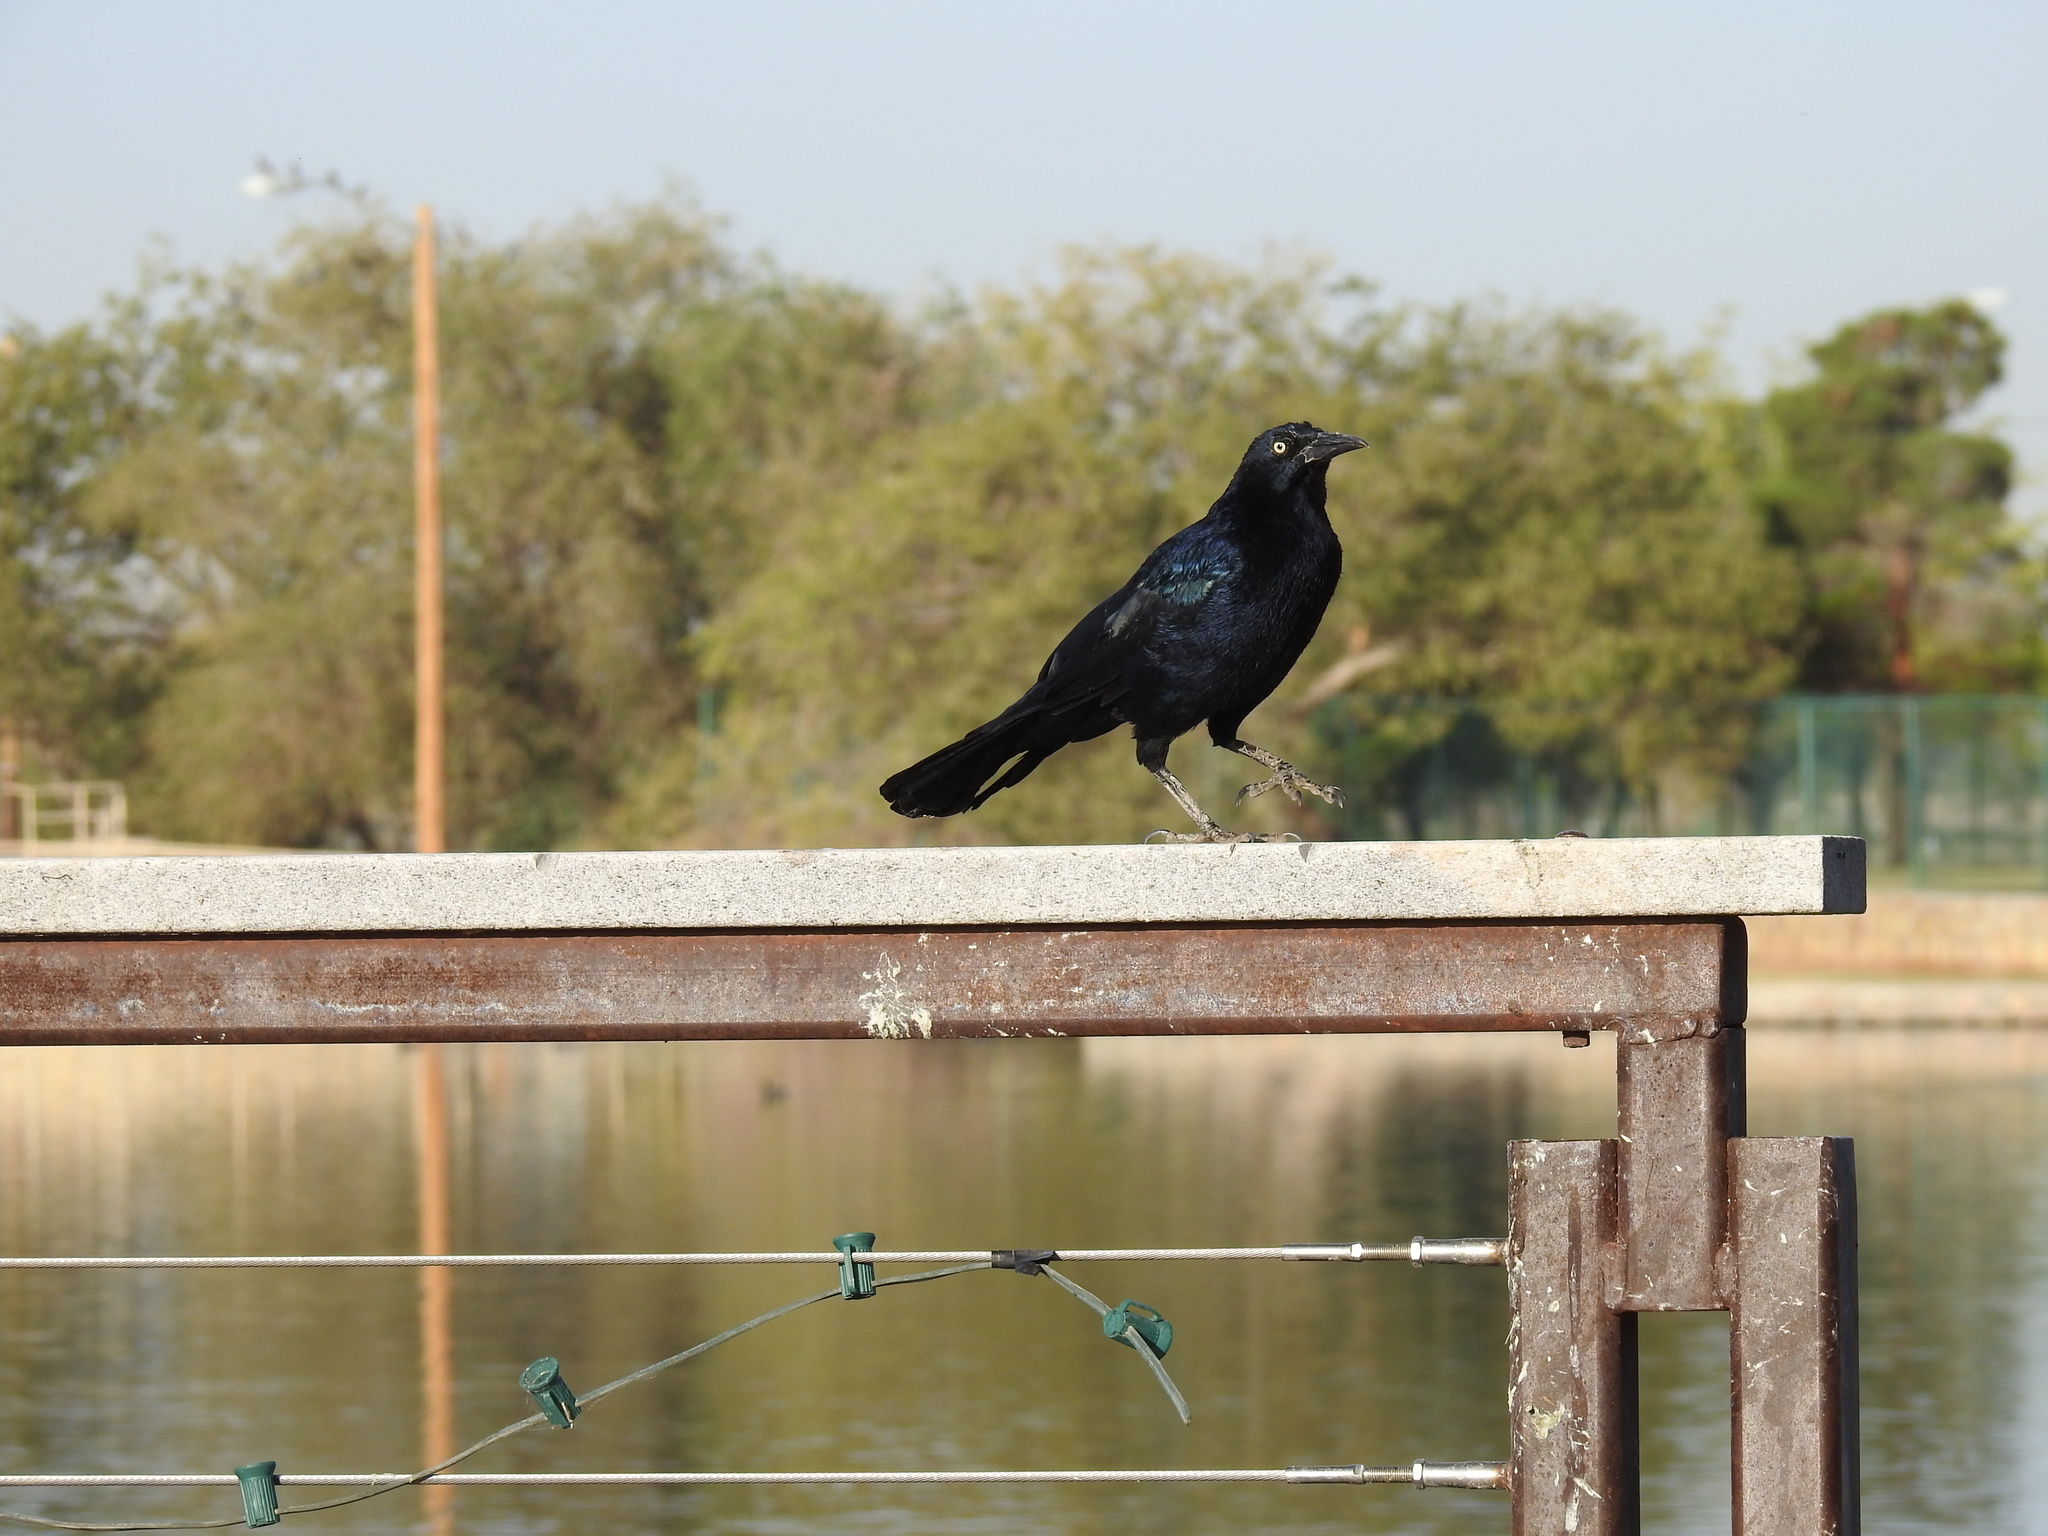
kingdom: Animalia
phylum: Chordata
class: Aves
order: Passeriformes
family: Icteridae
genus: Quiscalus
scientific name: Quiscalus mexicanus
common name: Great-tailed grackle
